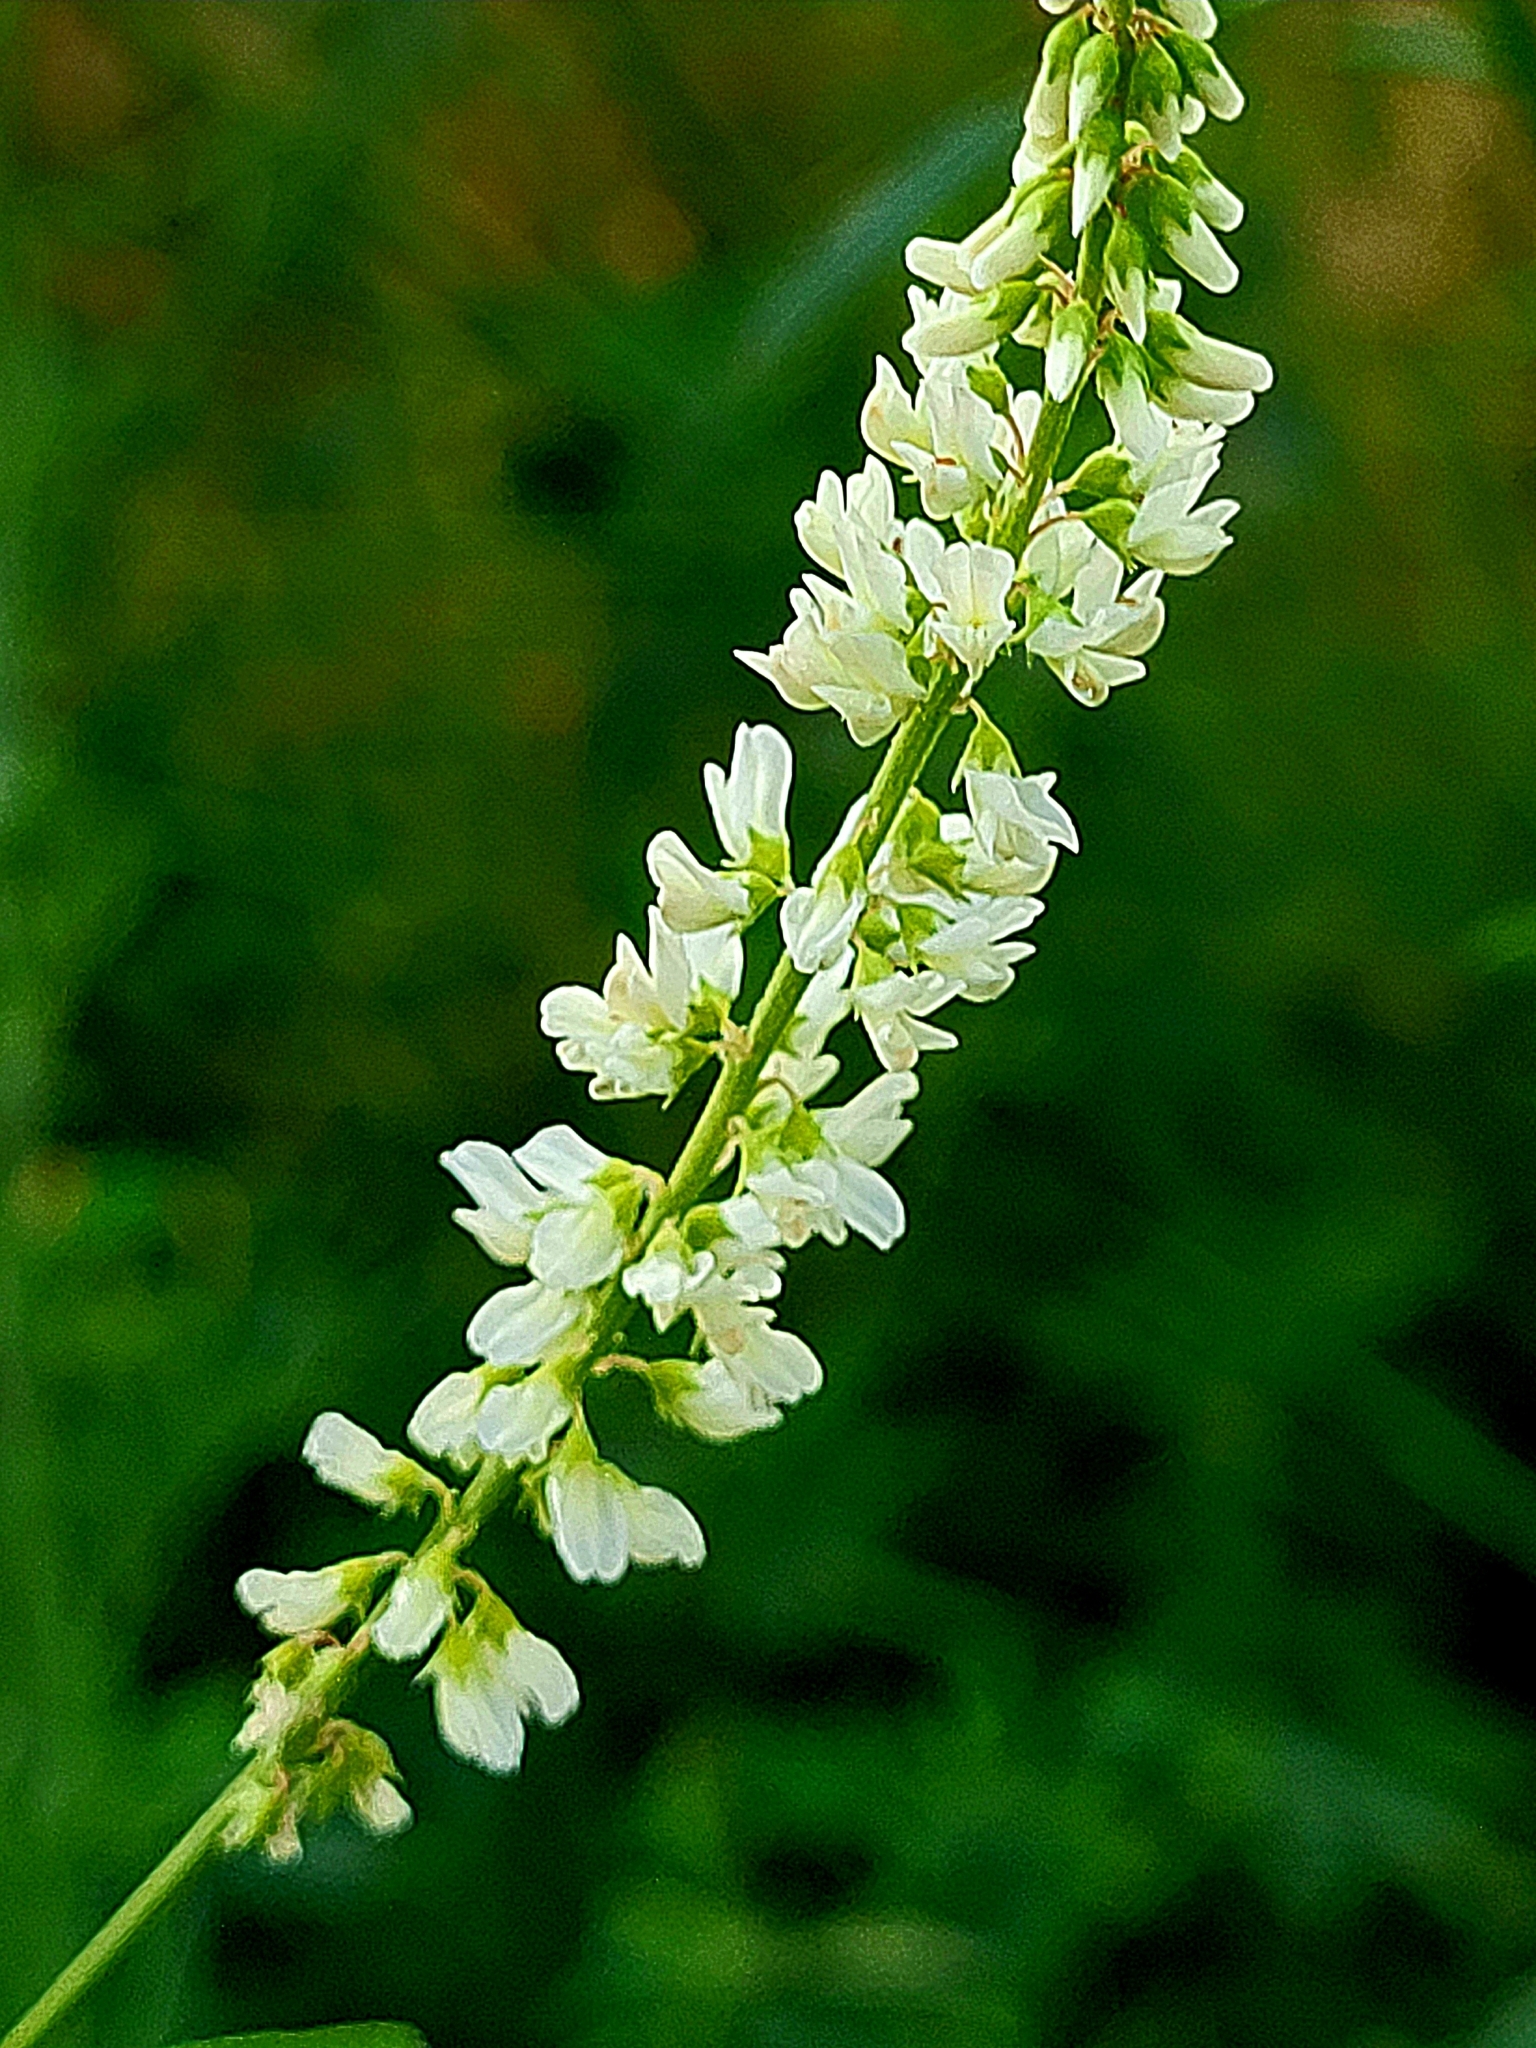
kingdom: Plantae
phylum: Tracheophyta
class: Magnoliopsida
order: Fabales
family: Fabaceae
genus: Melilotus
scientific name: Melilotus albus
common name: White melilot
